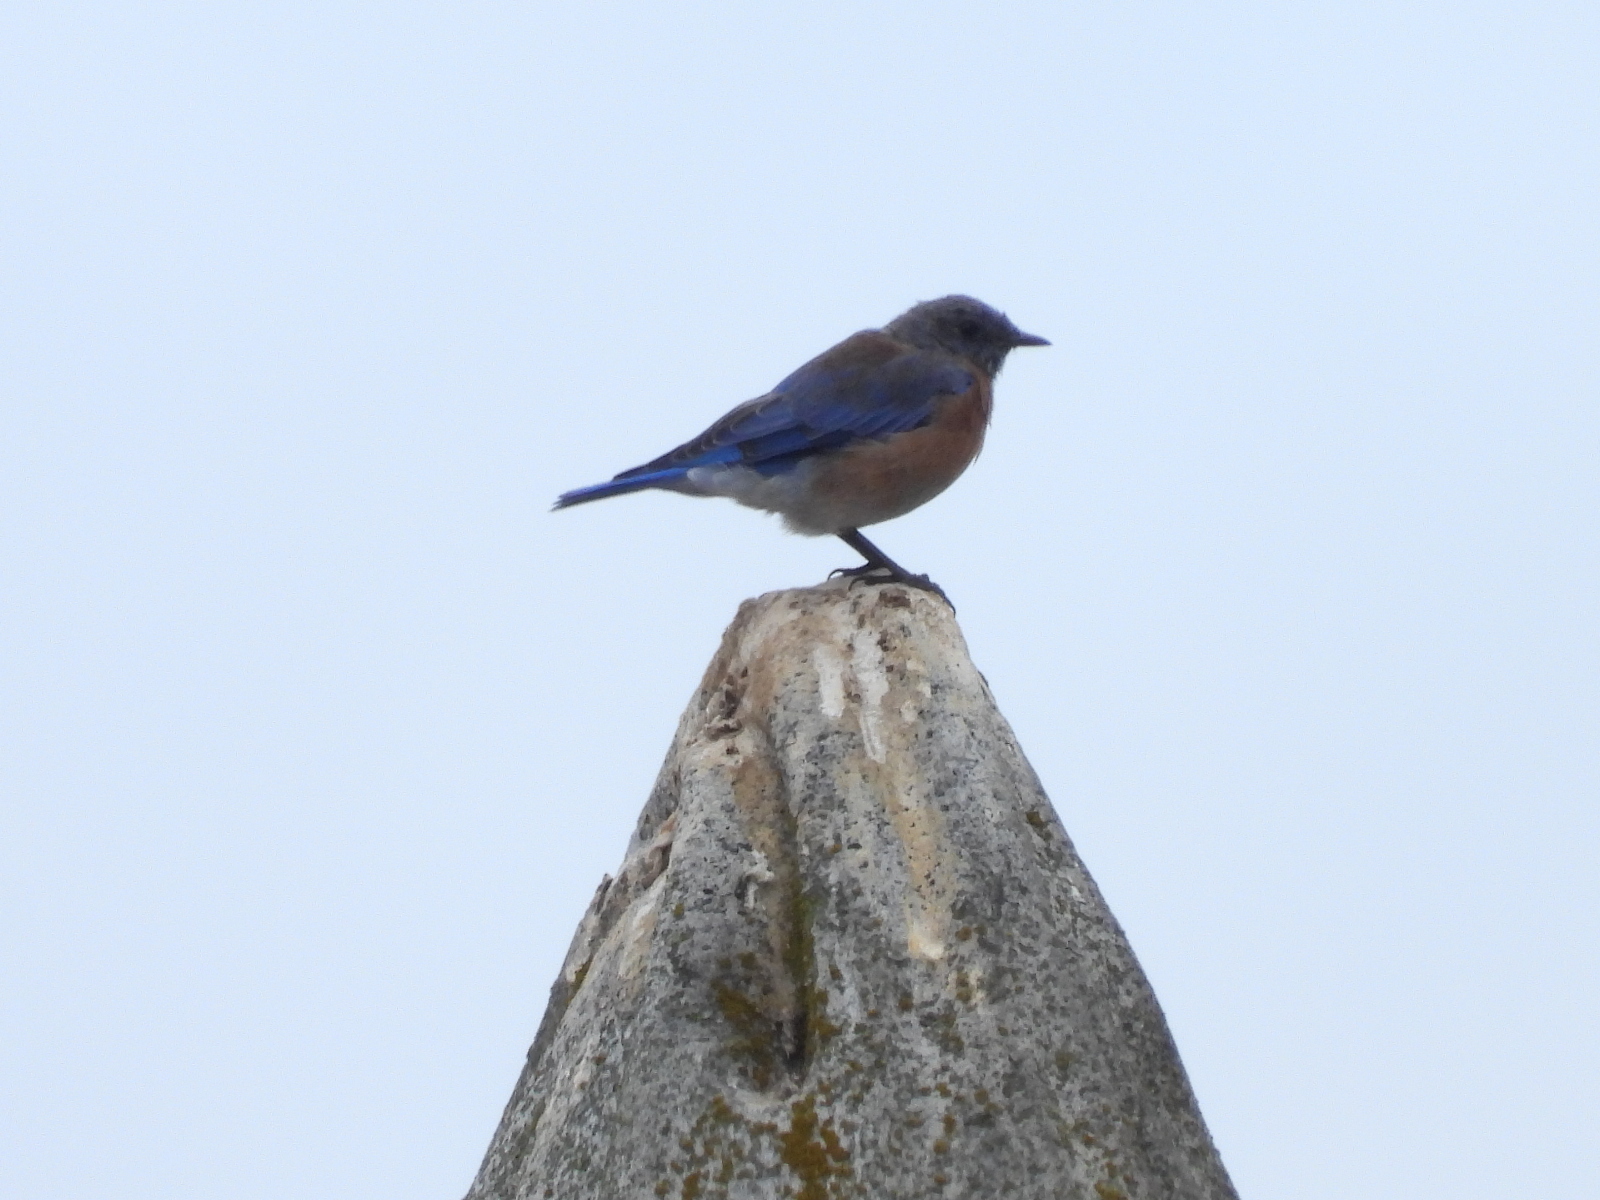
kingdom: Animalia
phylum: Chordata
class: Aves
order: Passeriformes
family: Turdidae
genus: Sialia
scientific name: Sialia mexicana
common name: Western bluebird
